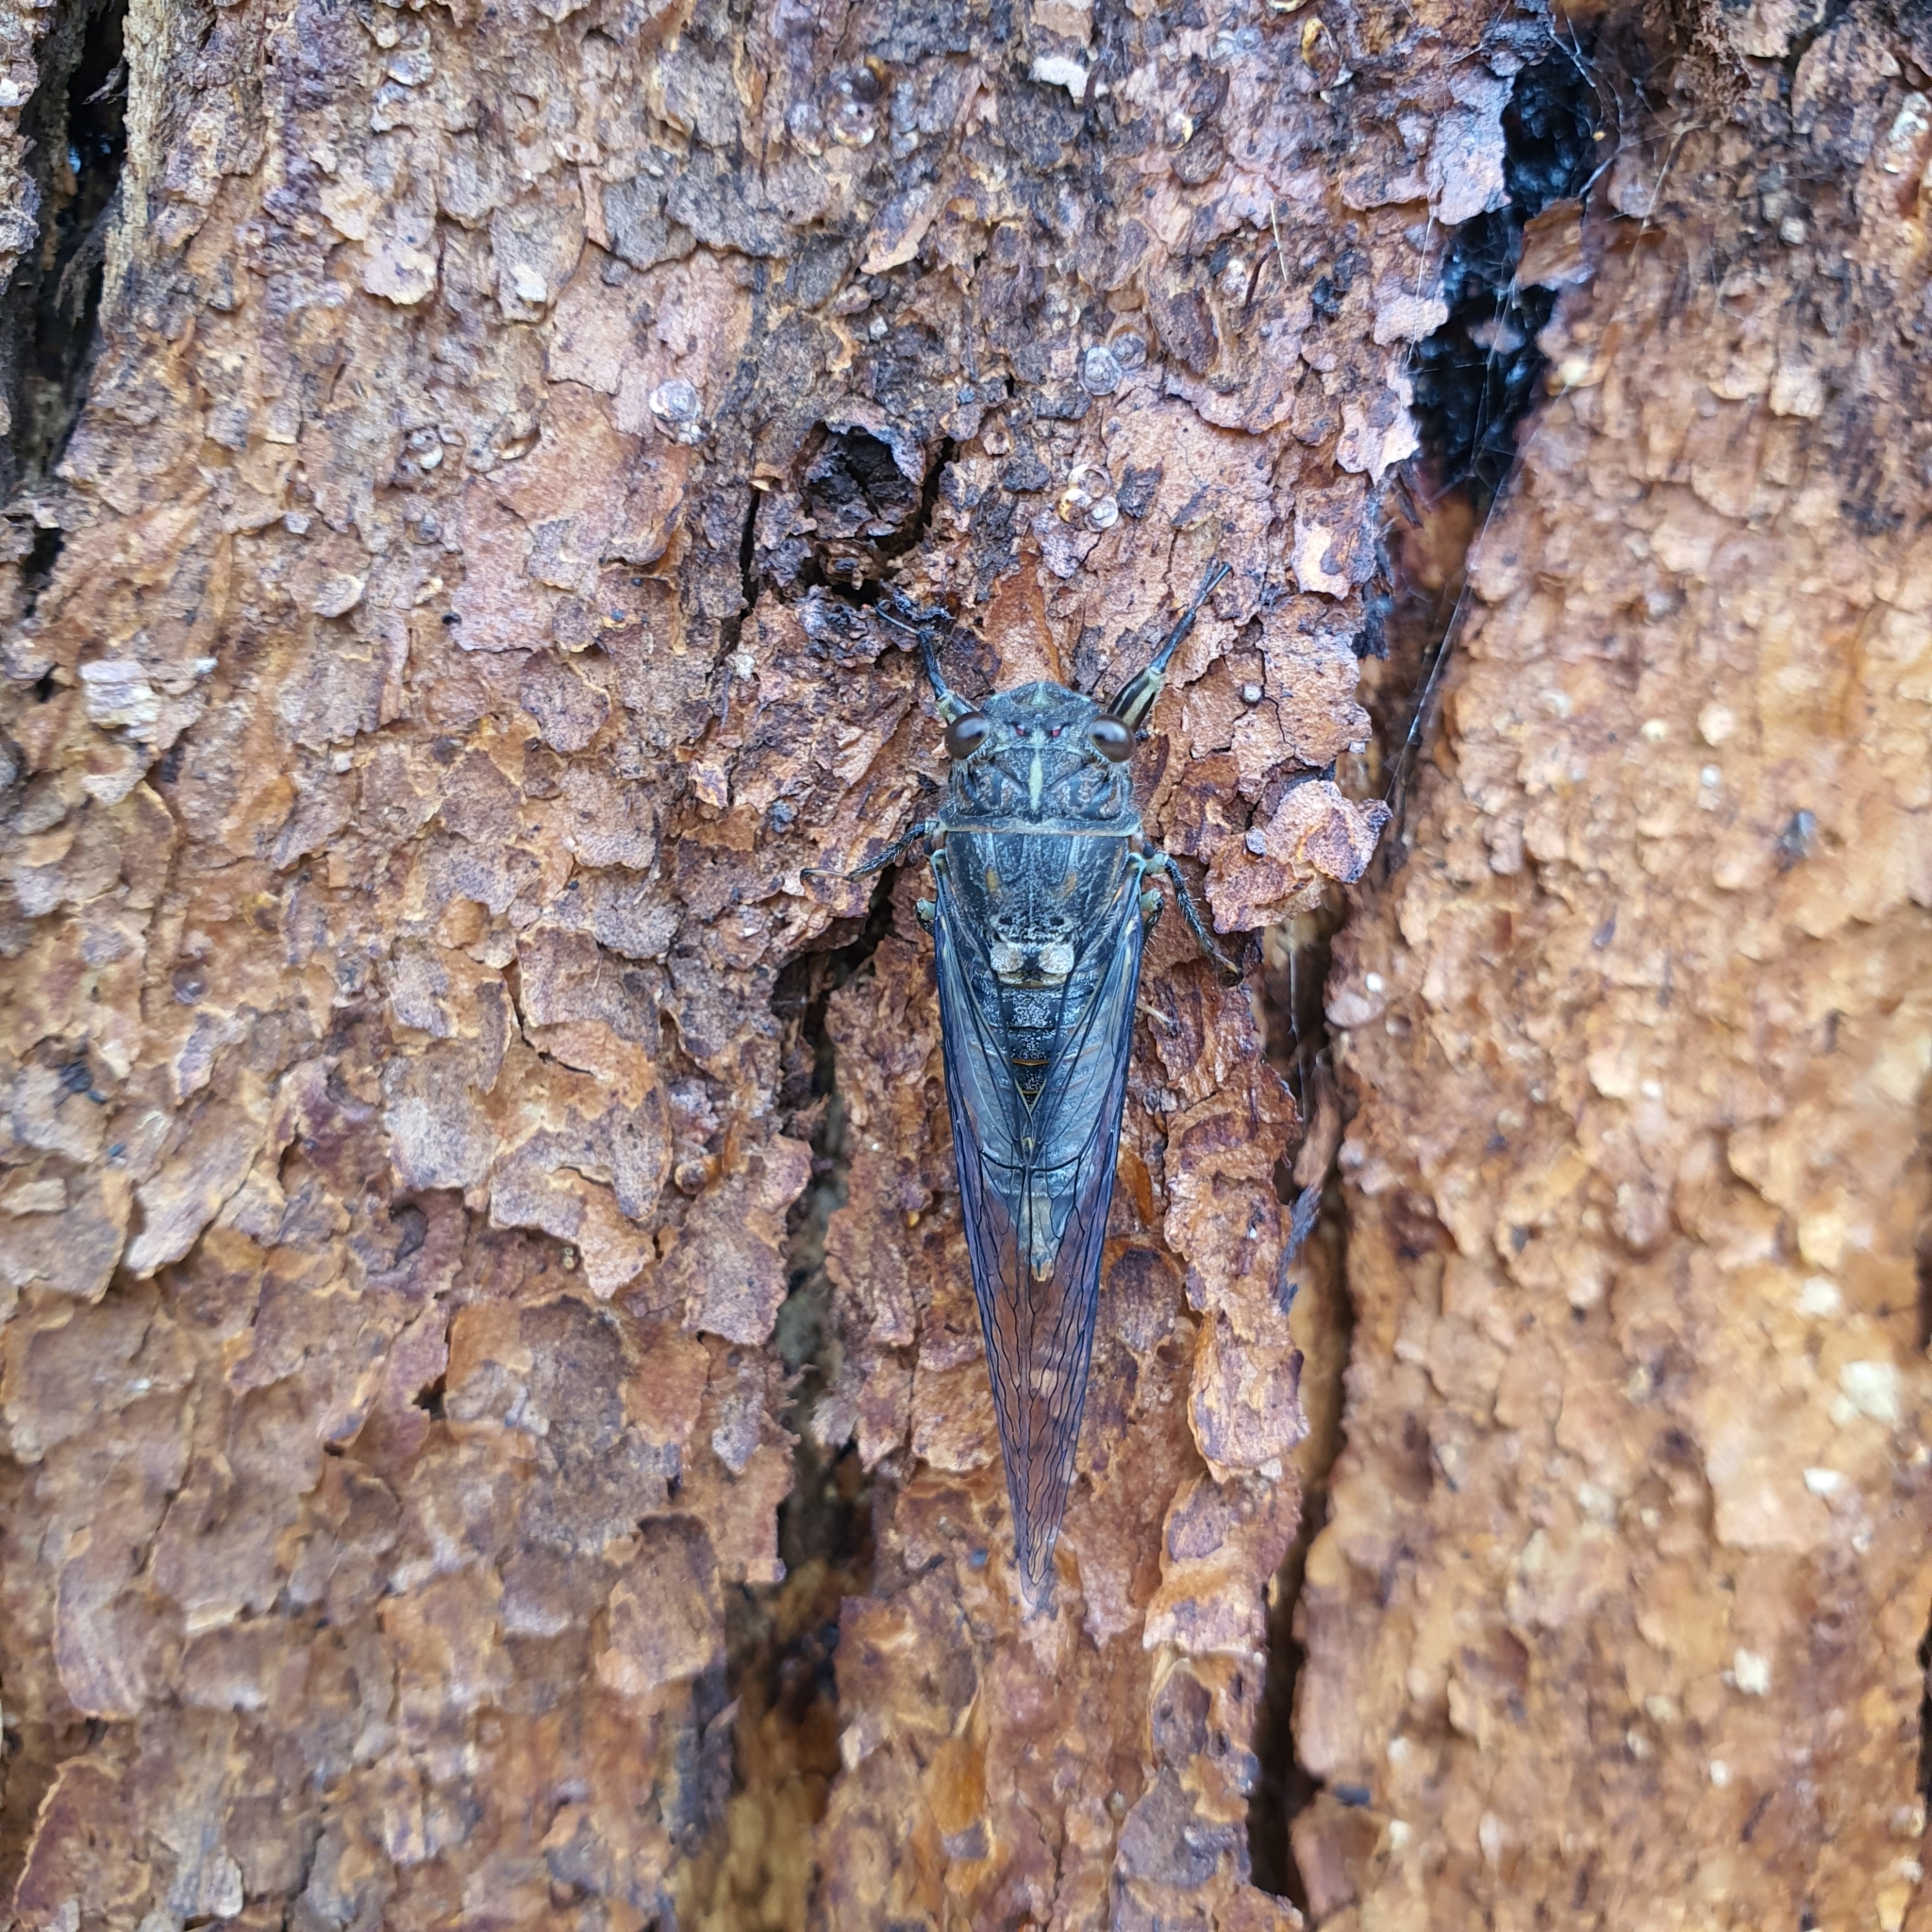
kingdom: Animalia
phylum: Arthropoda
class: Insecta
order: Hemiptera
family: Cicadidae
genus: Yoyetta
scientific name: Yoyetta robertsonae
